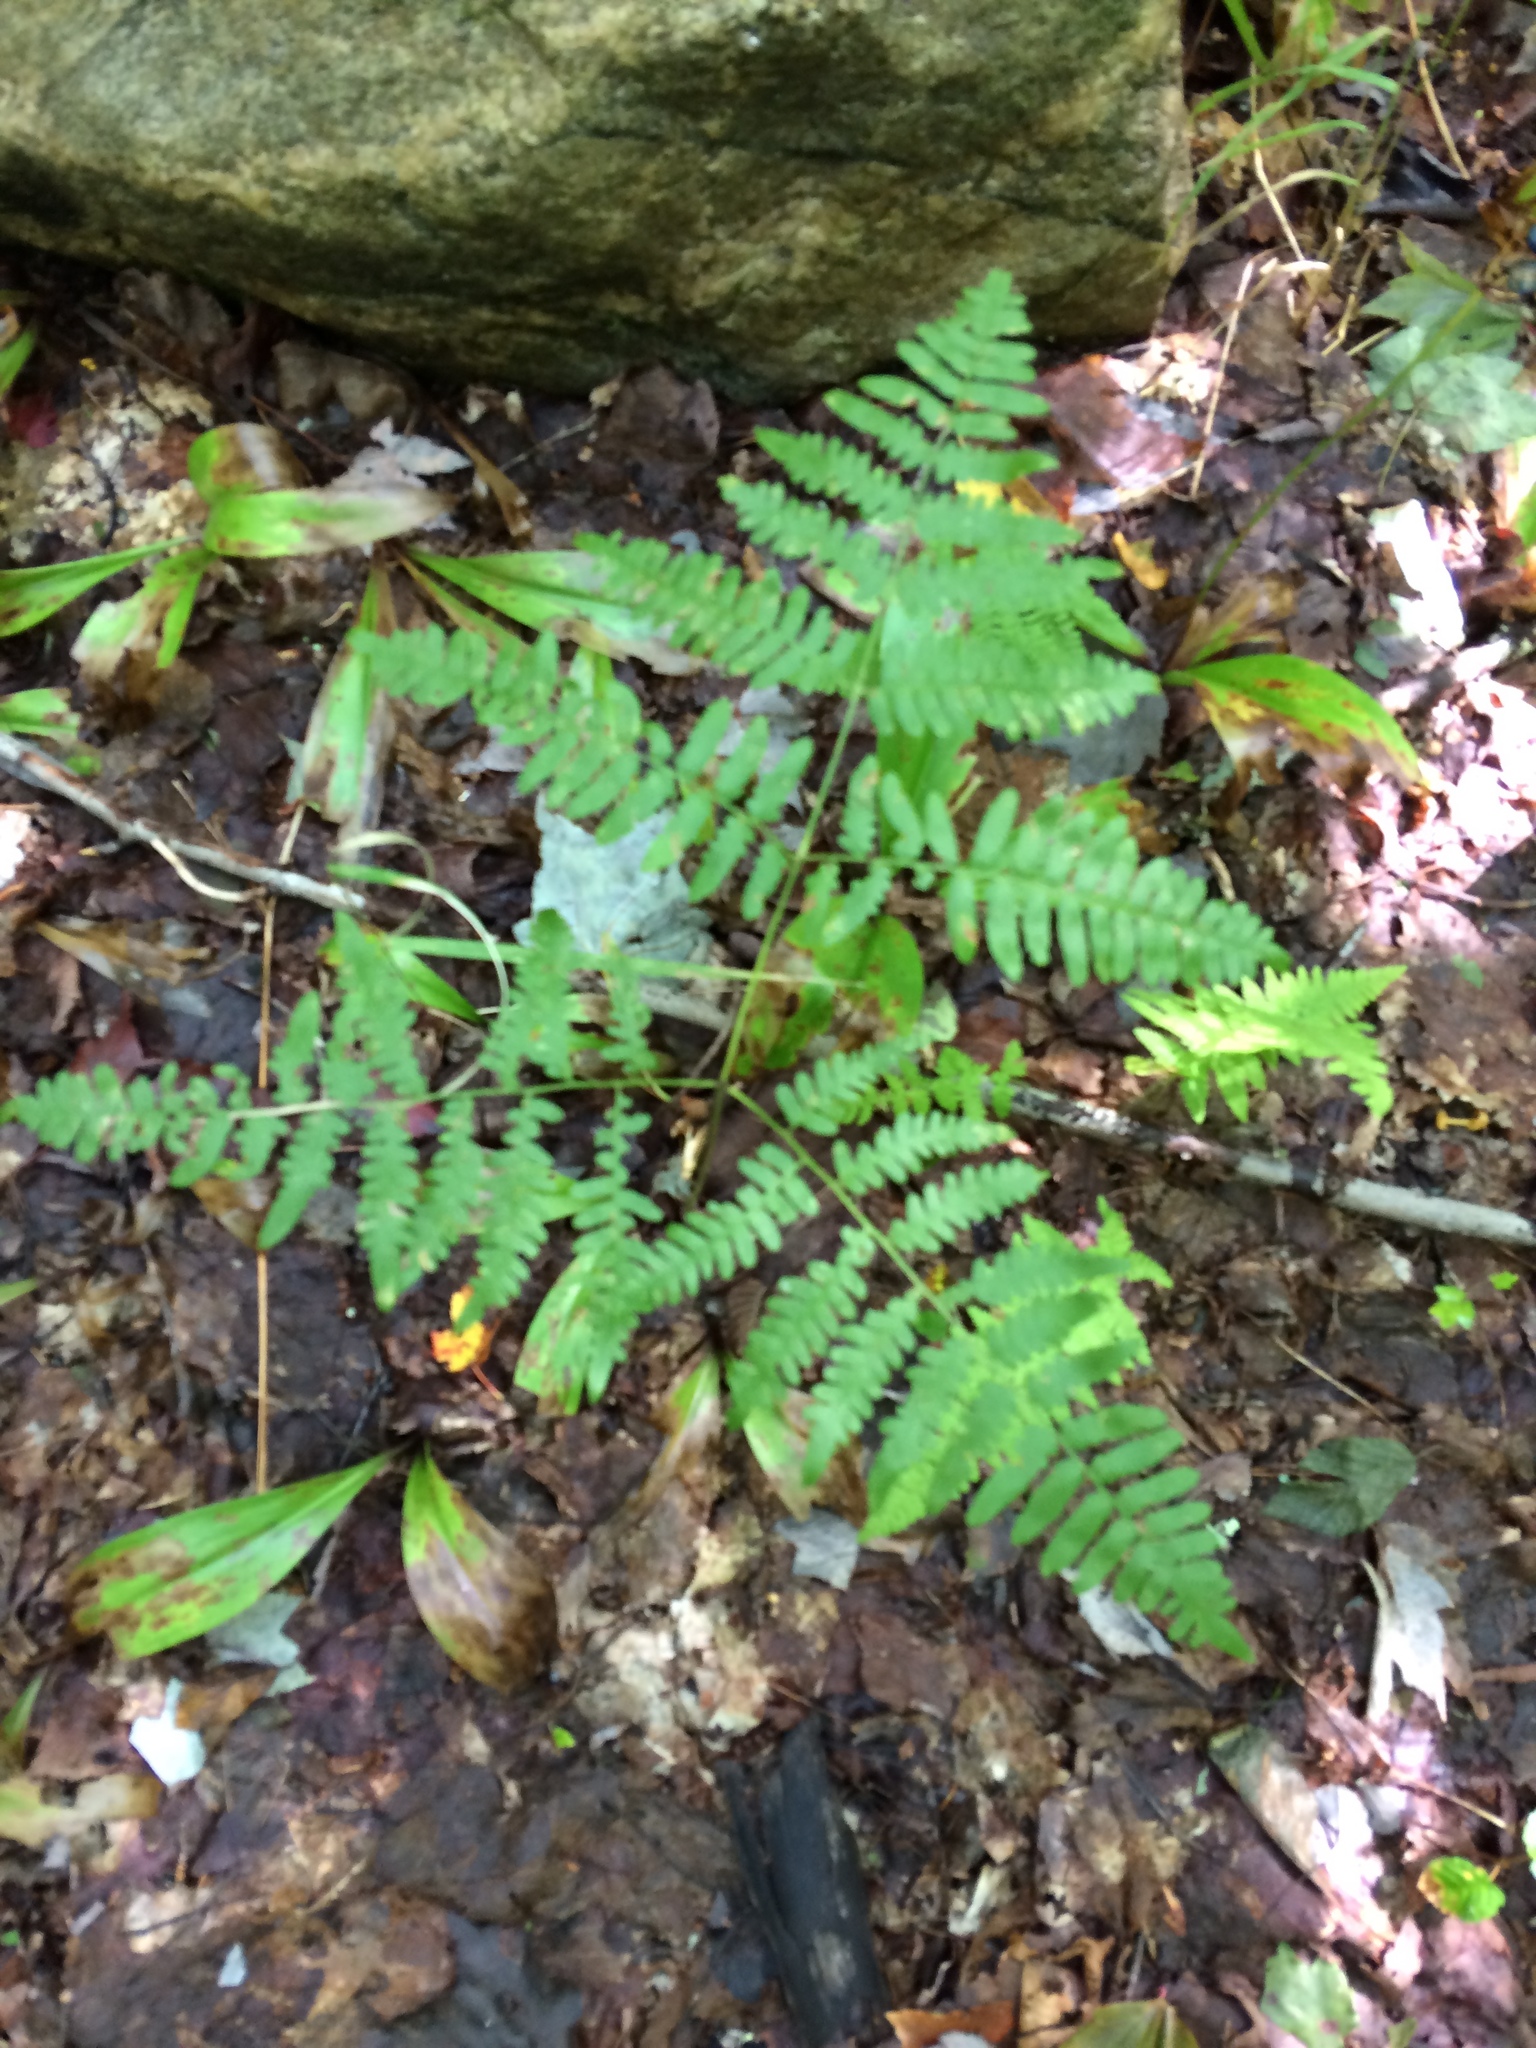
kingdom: Plantae
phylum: Tracheophyta
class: Polypodiopsida
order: Polypodiales
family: Dennstaedtiaceae
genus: Pteridium
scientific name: Pteridium aquilinum
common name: Bracken
